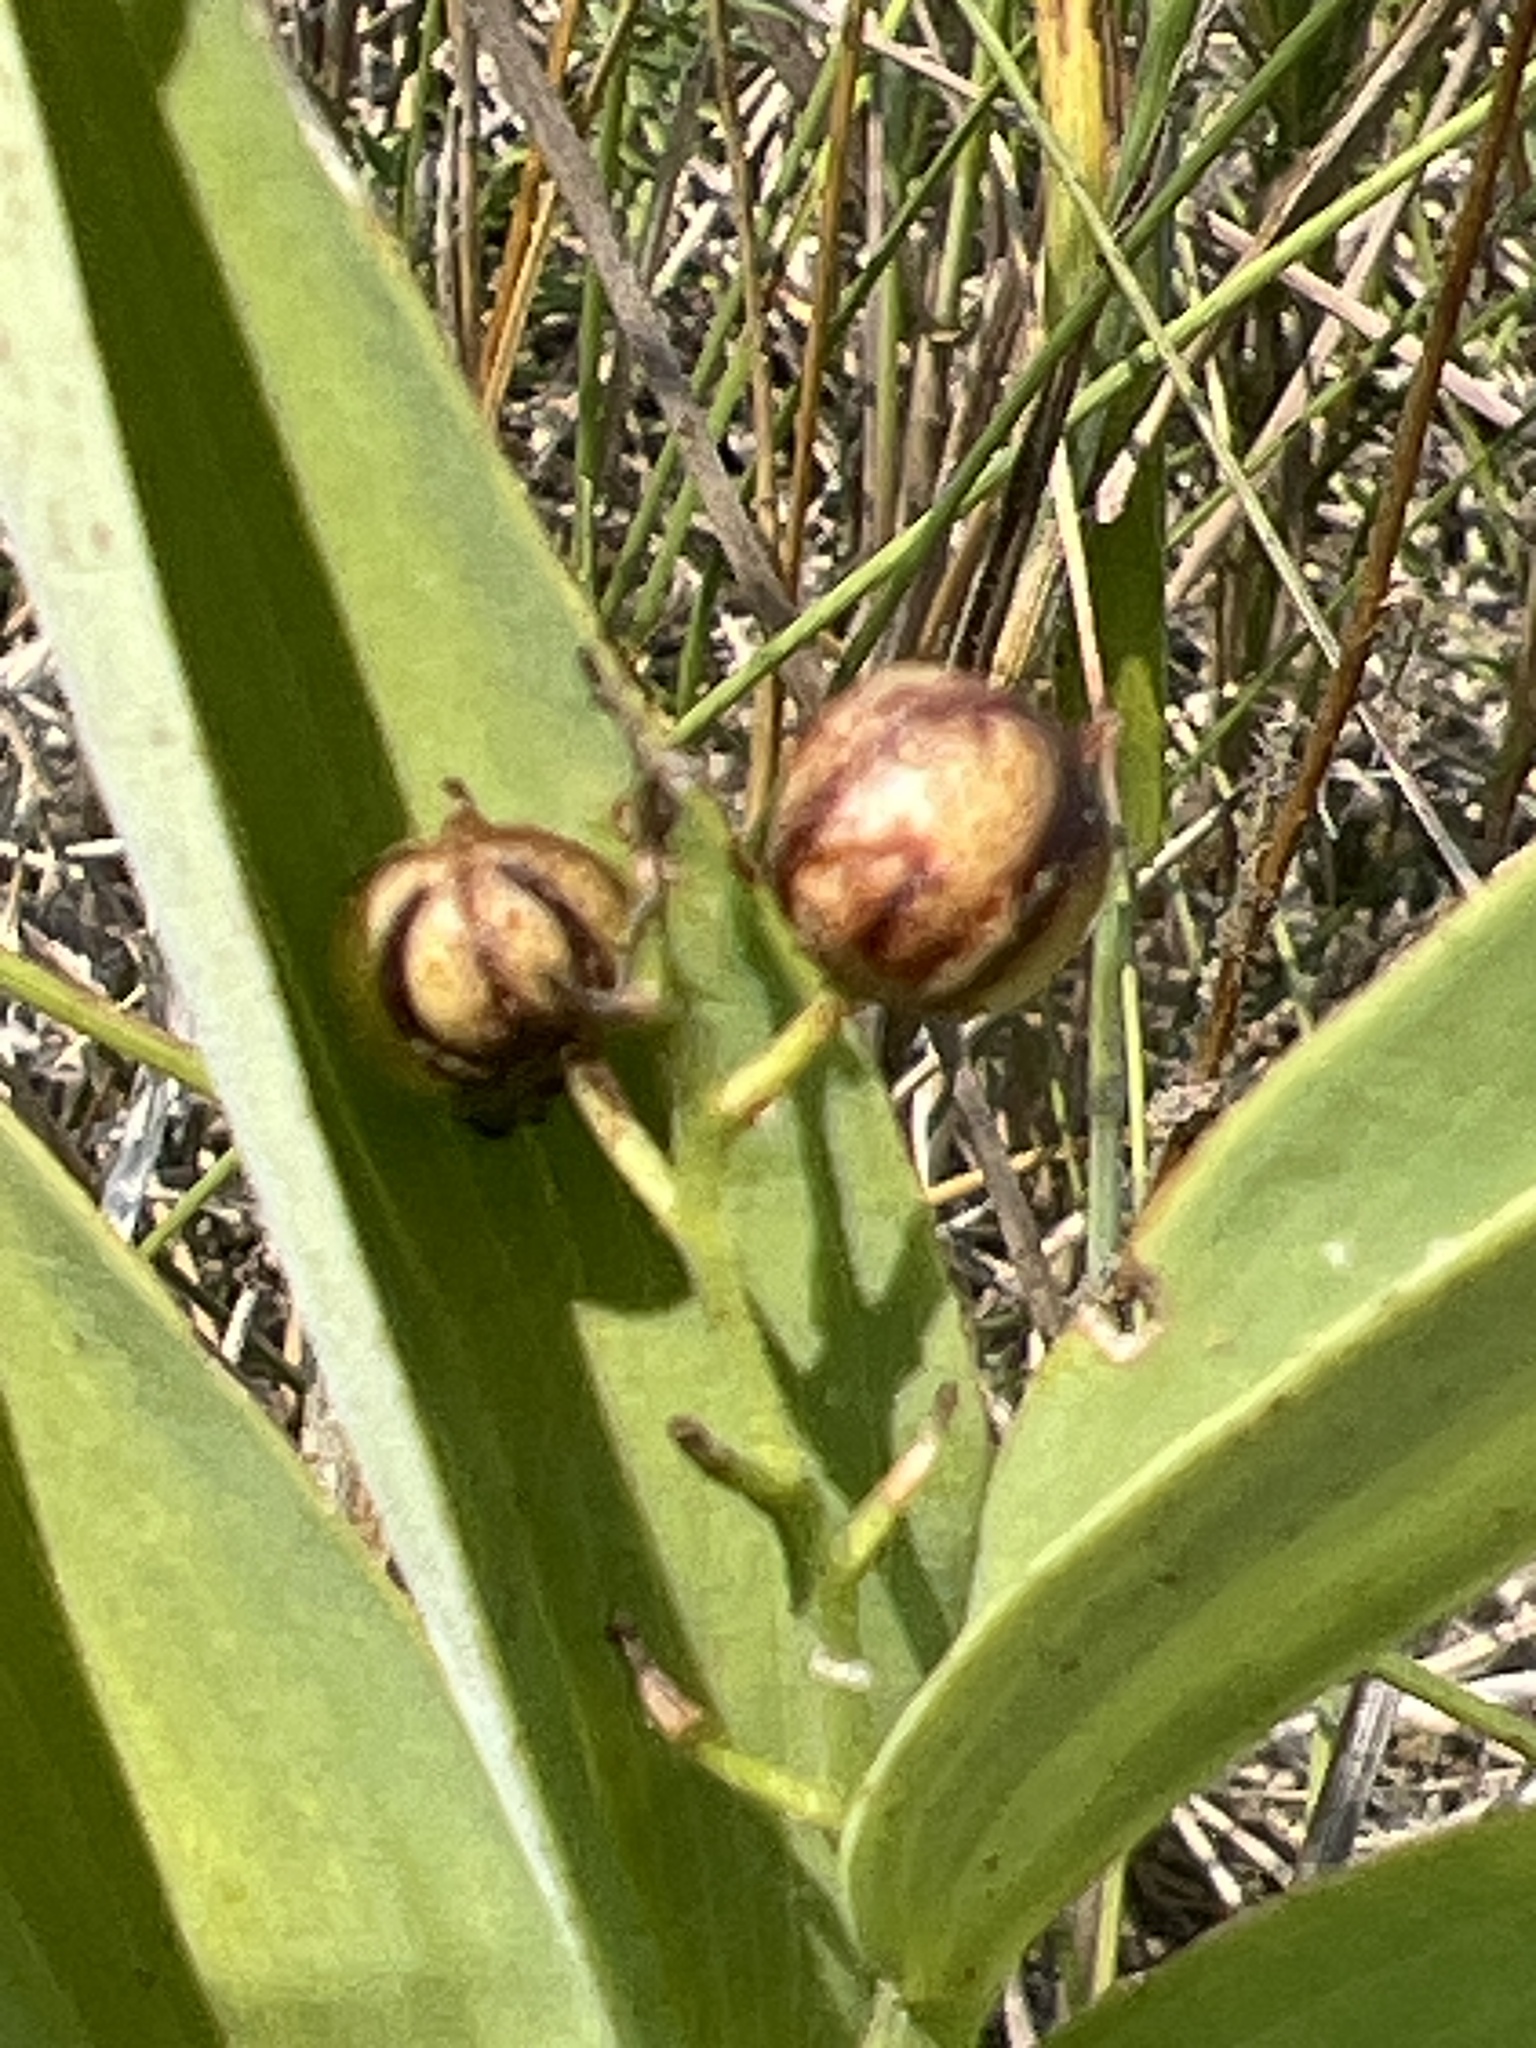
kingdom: Plantae
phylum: Tracheophyta
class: Liliopsida
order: Asparagales
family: Asparagaceae
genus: Maianthemum
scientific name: Maianthemum stellatum
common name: Little false solomon's seal
